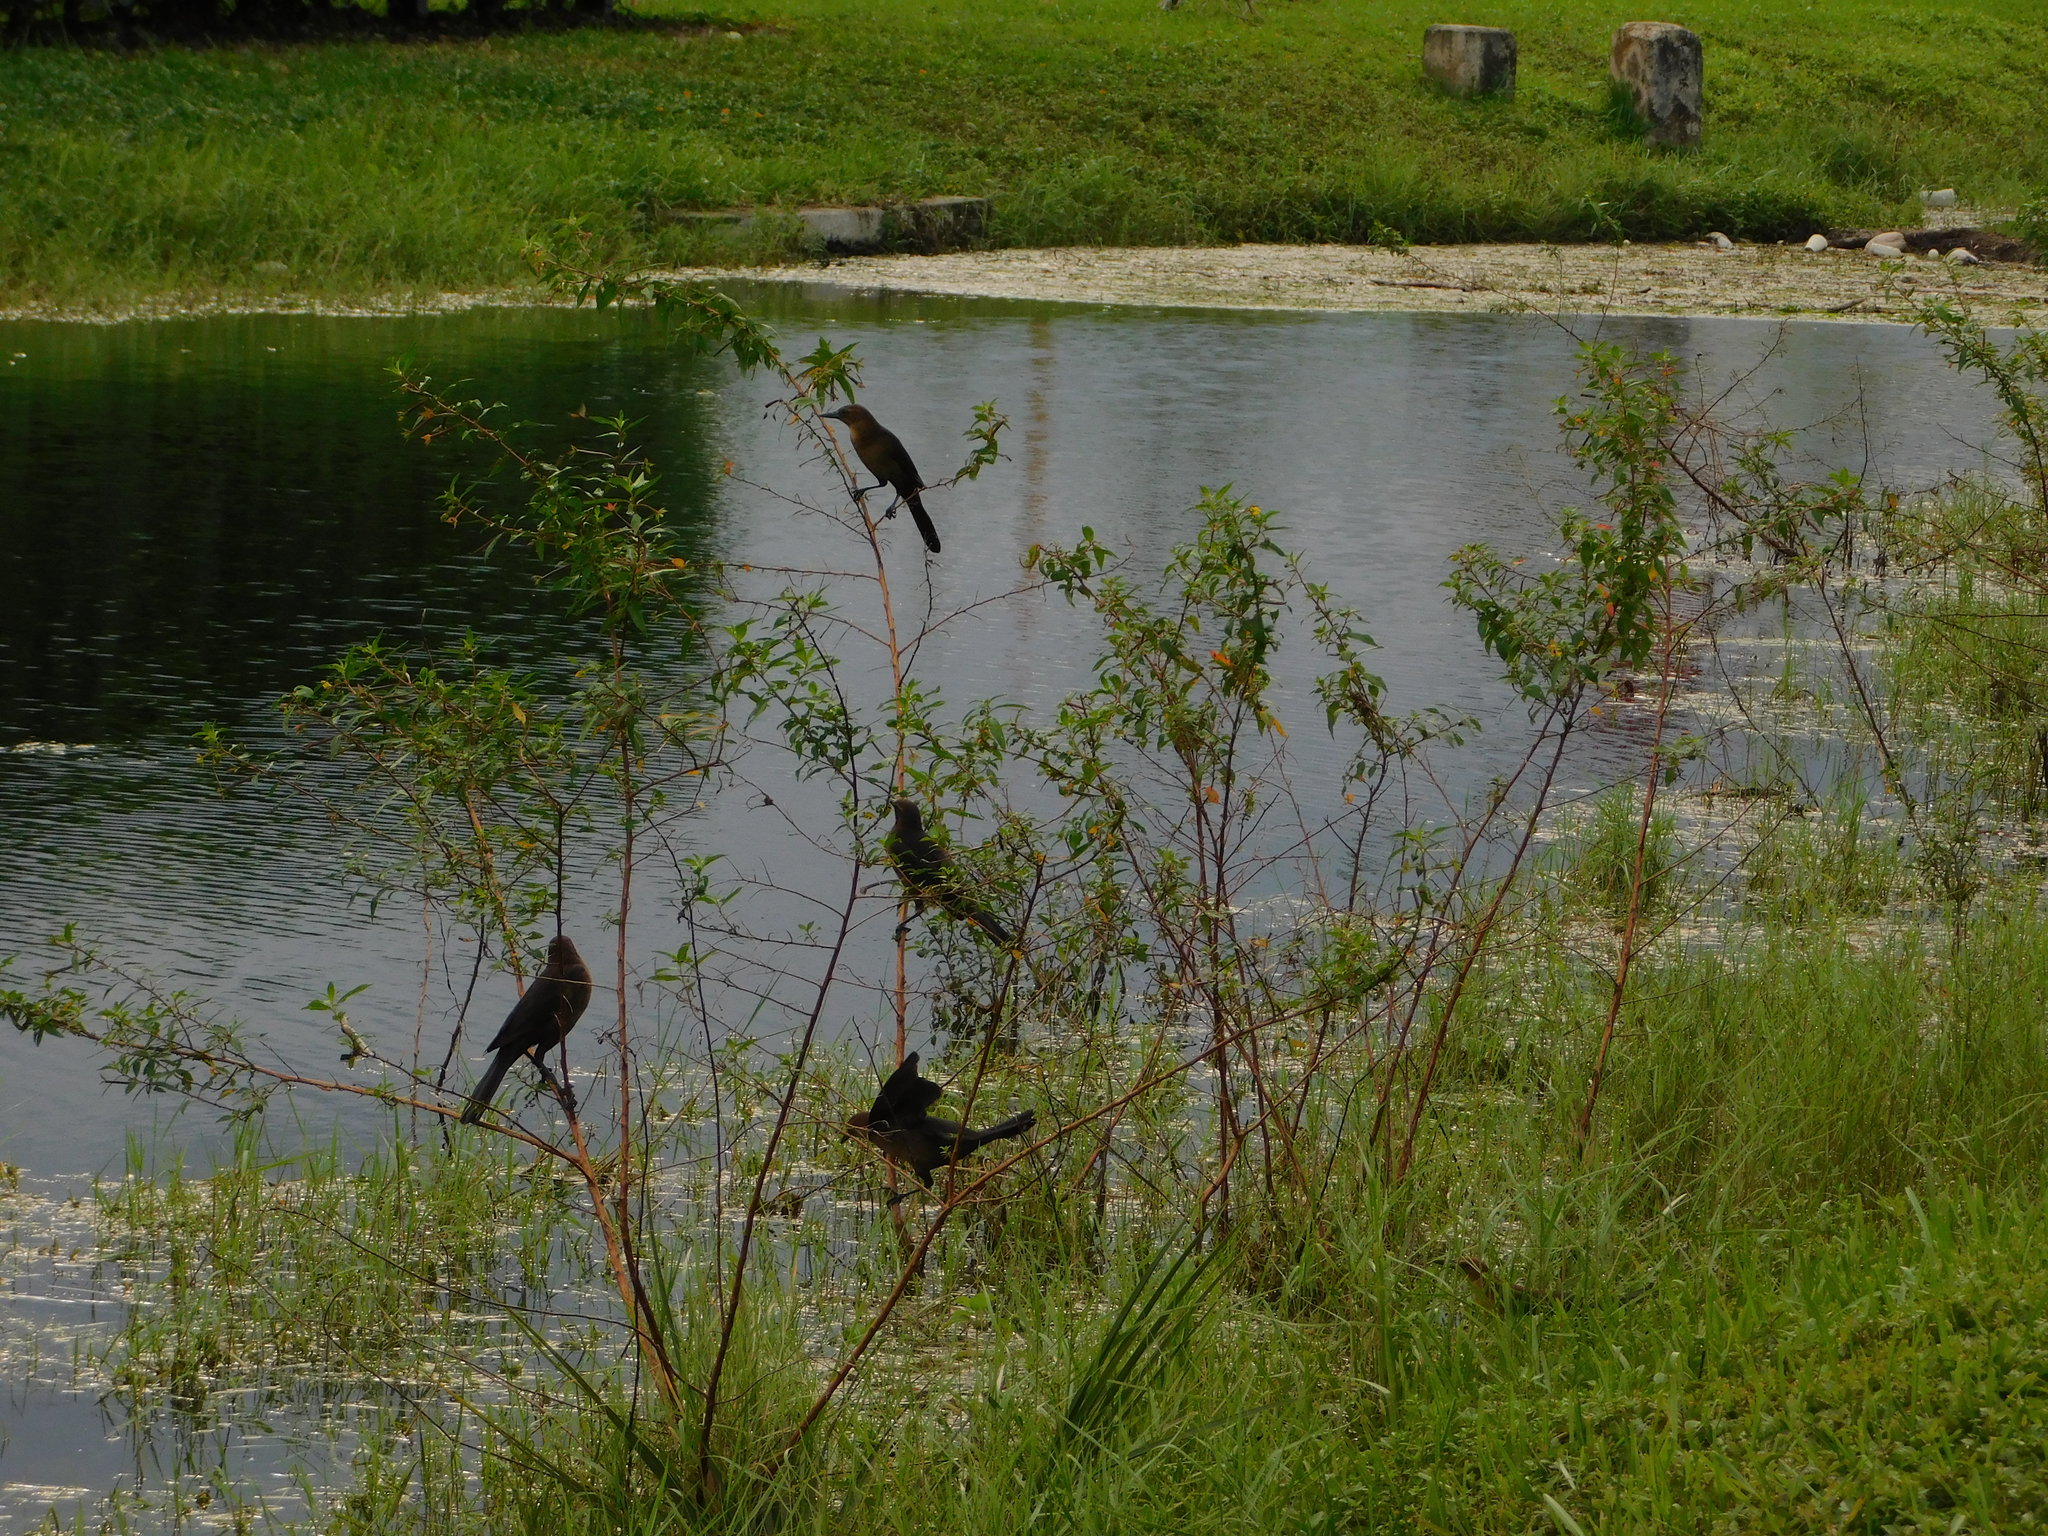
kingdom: Animalia
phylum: Chordata
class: Aves
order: Passeriformes
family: Icteridae
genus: Quiscalus
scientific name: Quiscalus major
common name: Boat-tailed grackle
